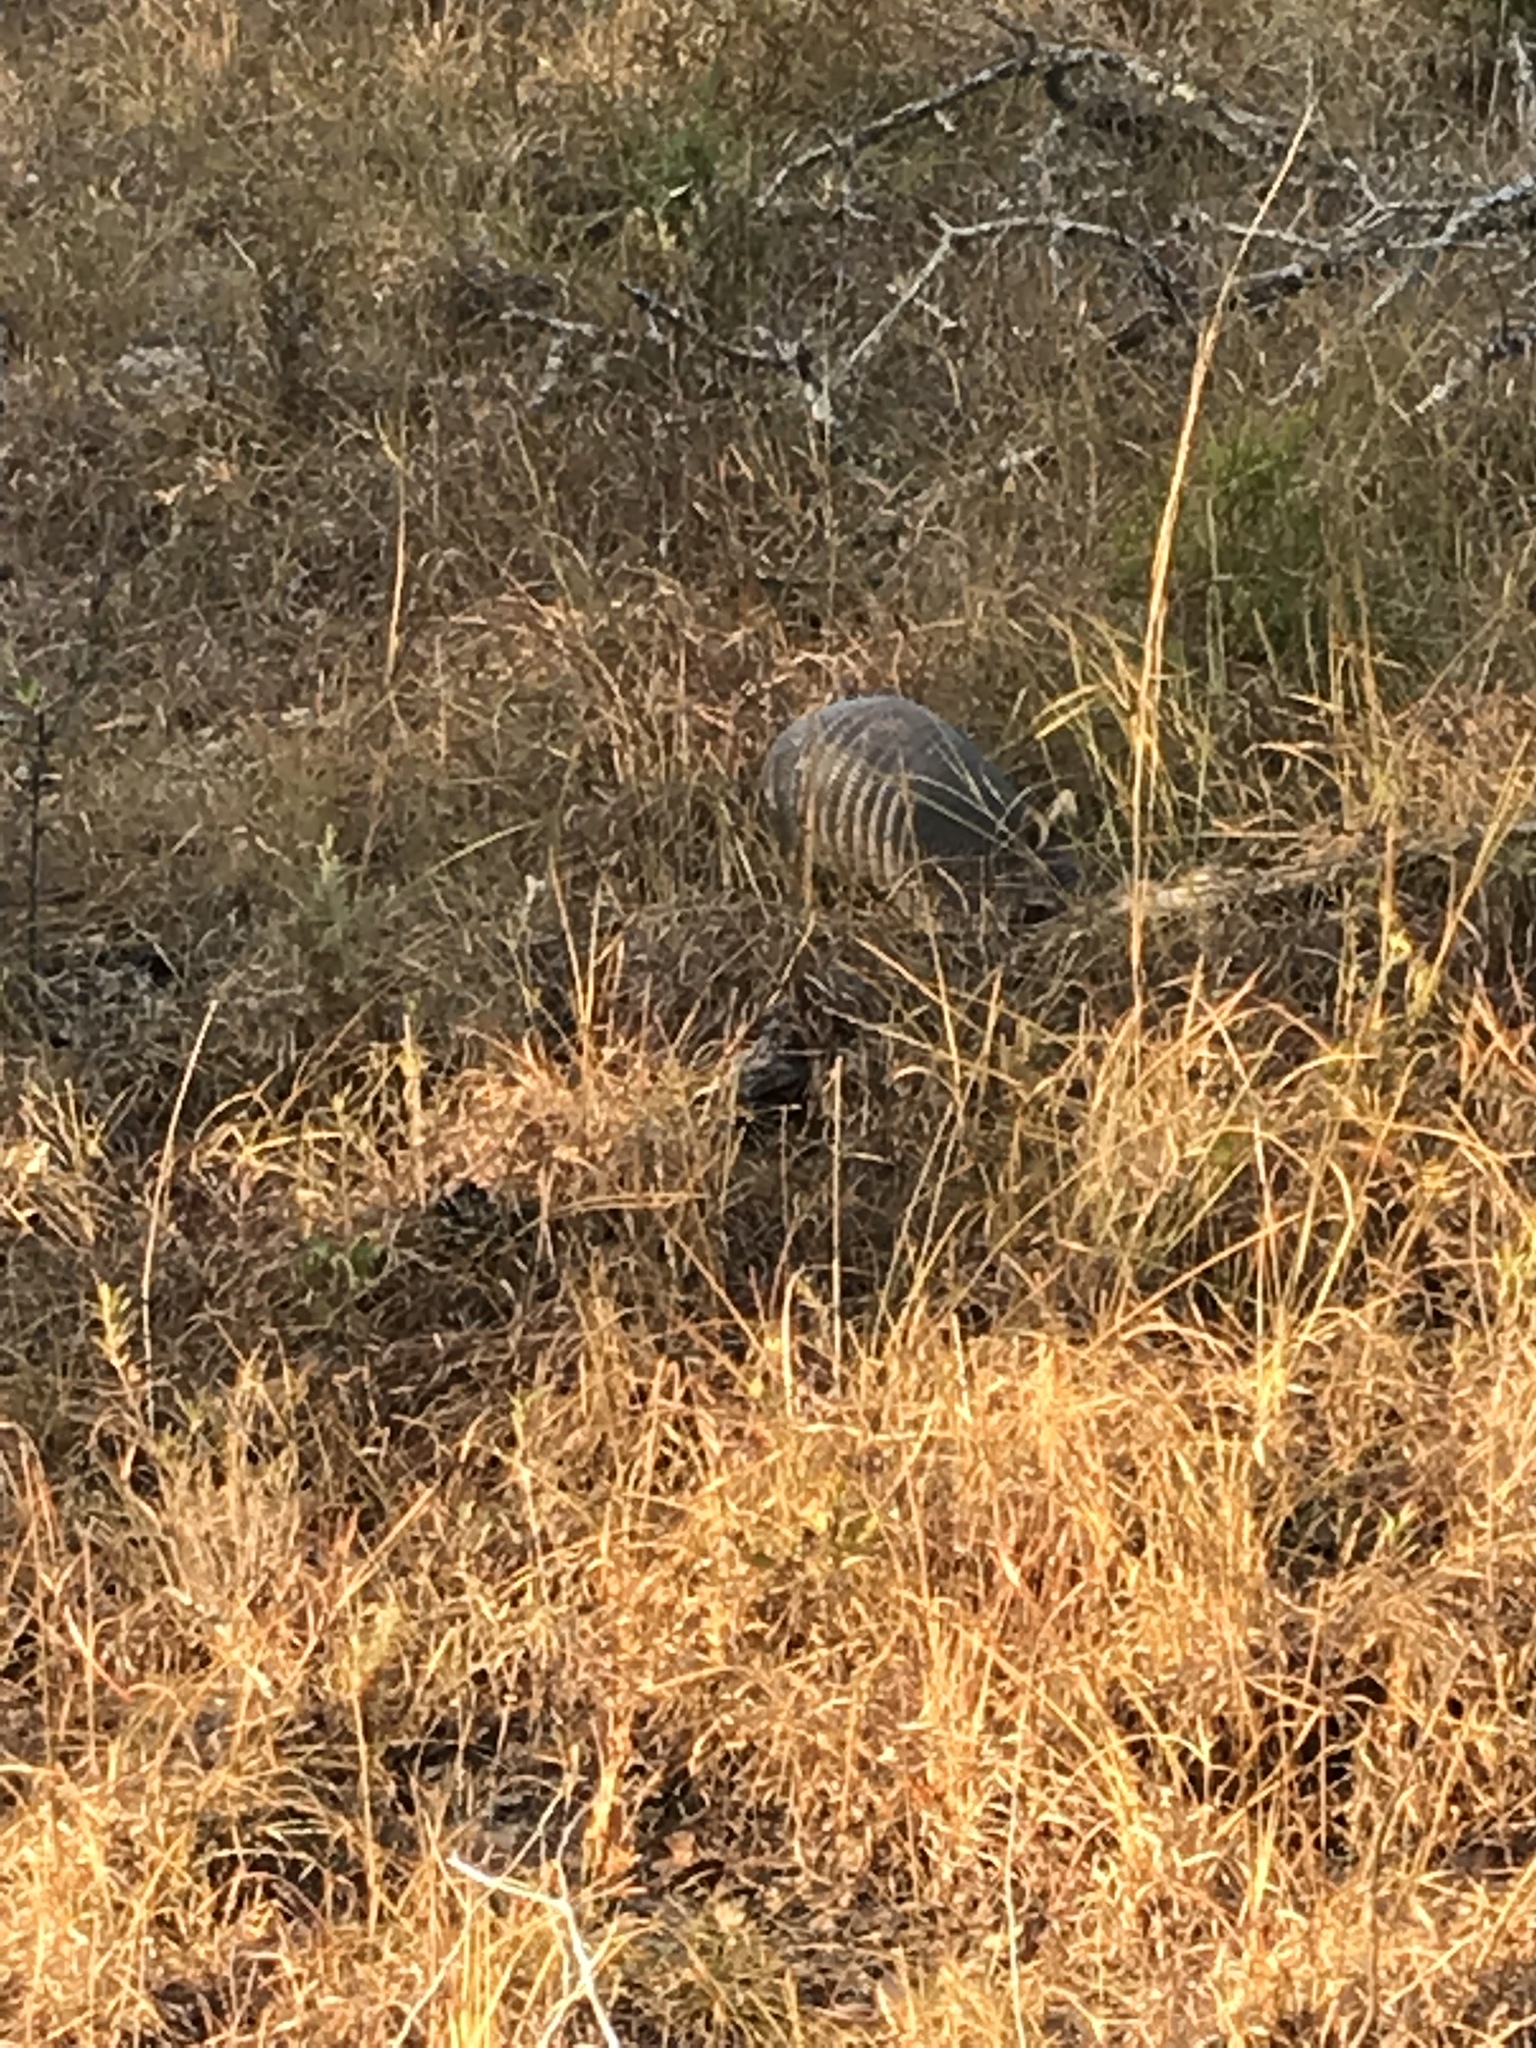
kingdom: Animalia
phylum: Chordata
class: Mammalia
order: Cingulata
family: Dasypodidae
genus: Dasypus
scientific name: Dasypus novemcinctus
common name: Nine-banded armadillo
